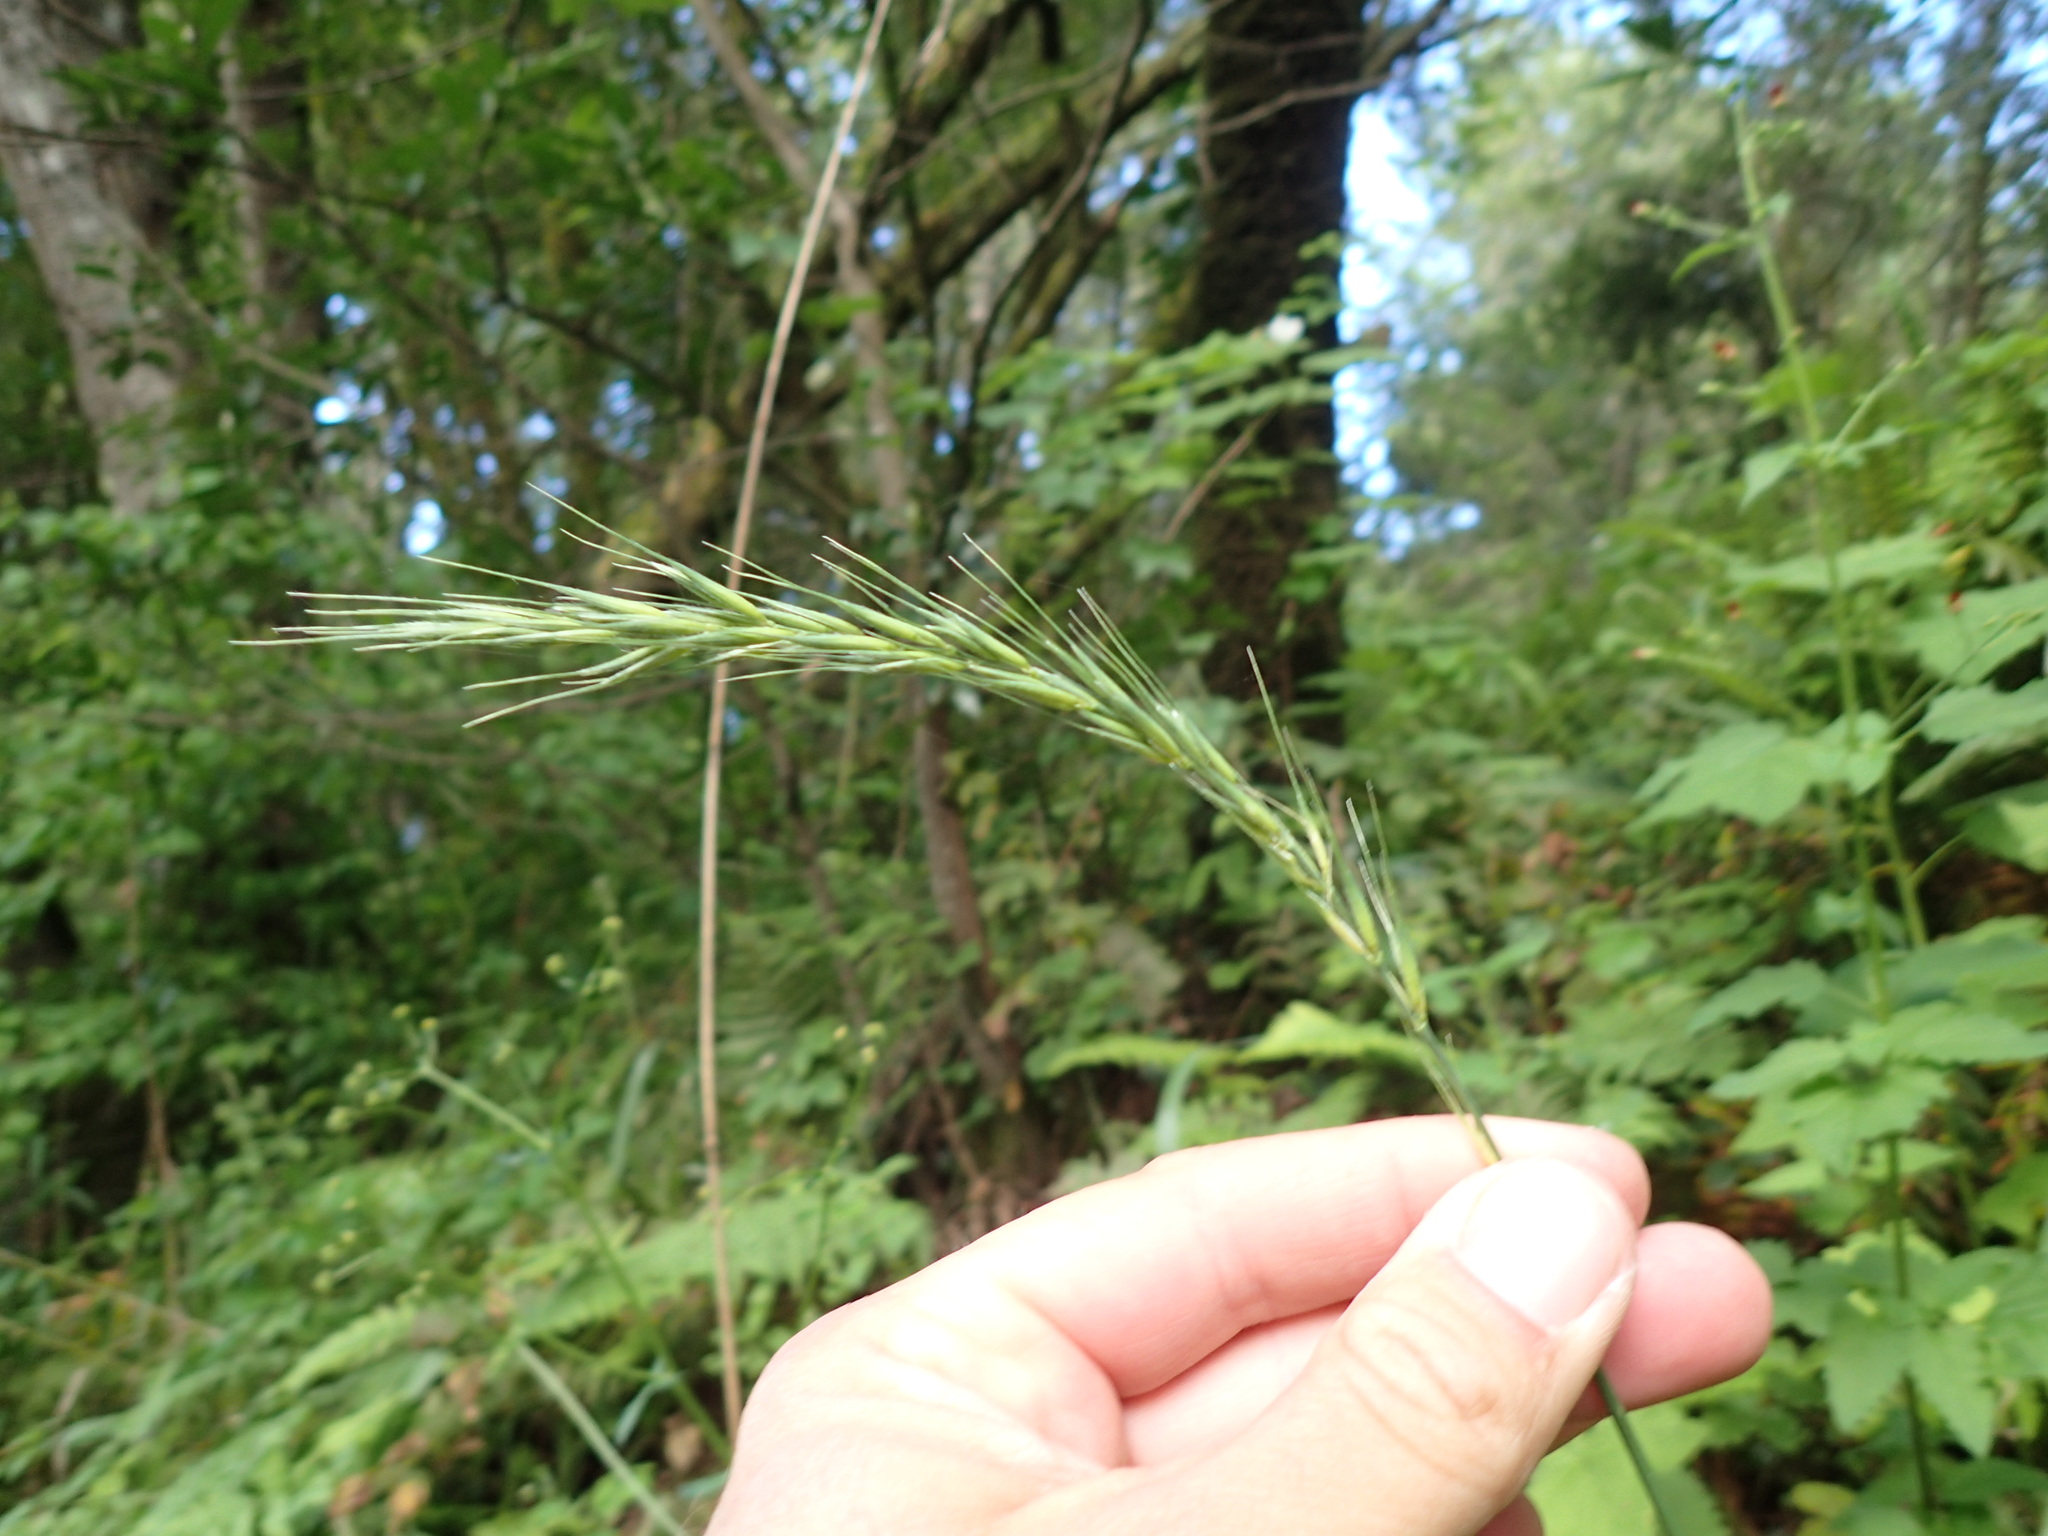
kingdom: Plantae
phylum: Tracheophyta
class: Liliopsida
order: Poales
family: Poaceae
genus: Elymus
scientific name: Elymus californicus
